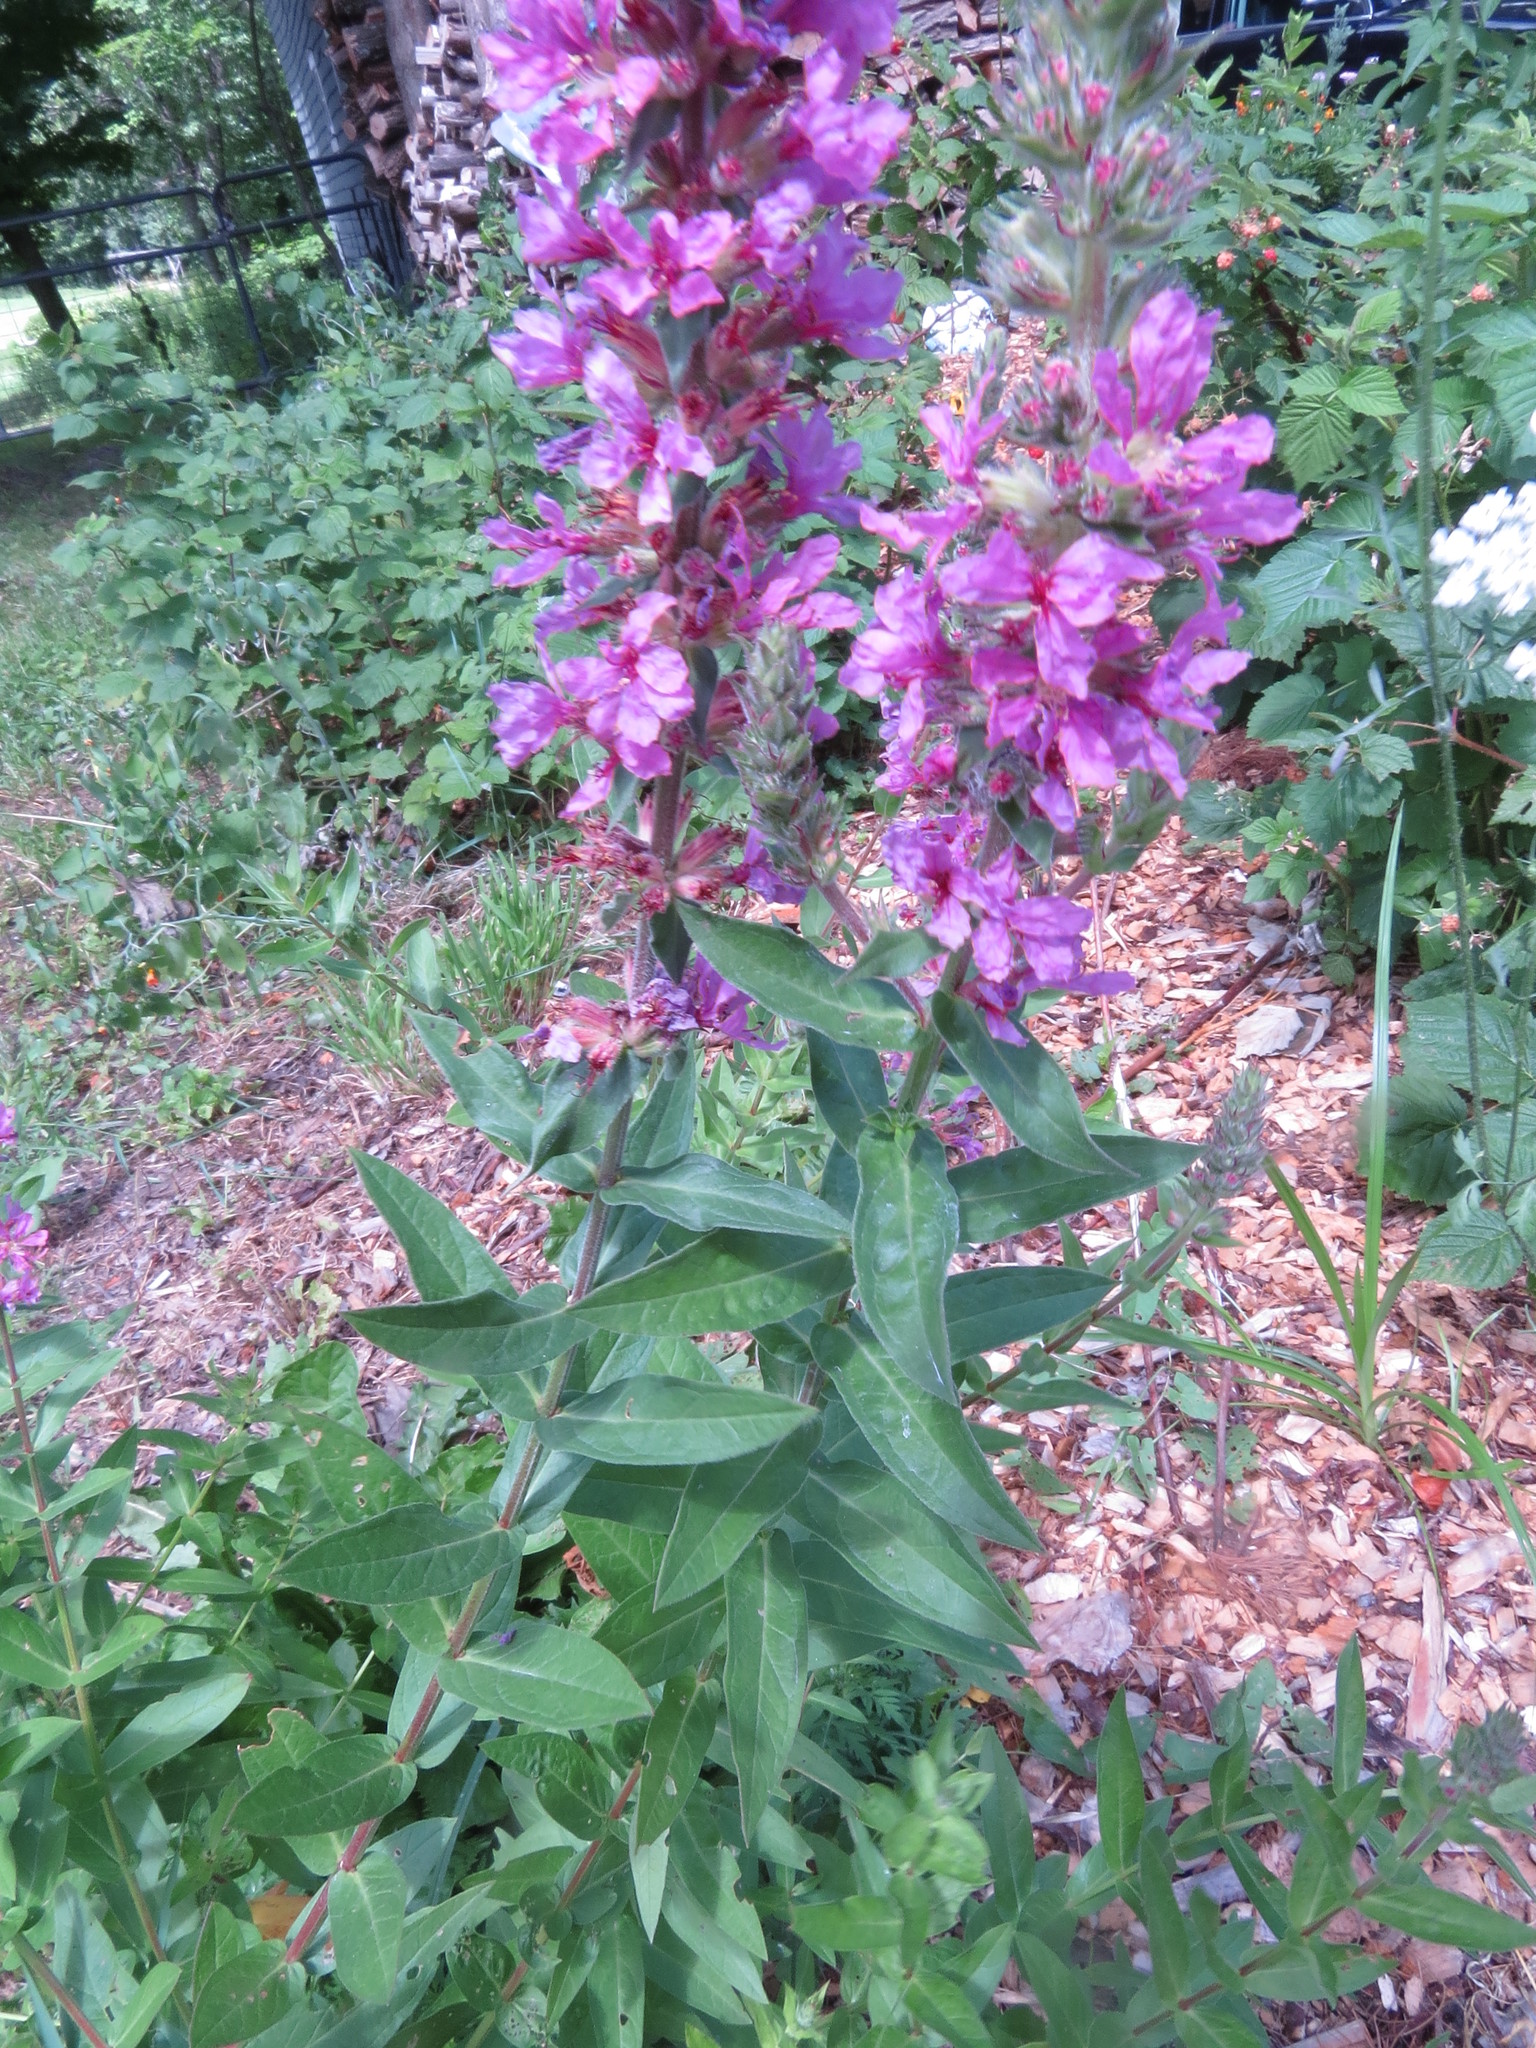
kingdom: Plantae
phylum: Tracheophyta
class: Magnoliopsida
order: Myrtales
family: Lythraceae
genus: Lythrum
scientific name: Lythrum salicaria
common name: Purple loosestrife
